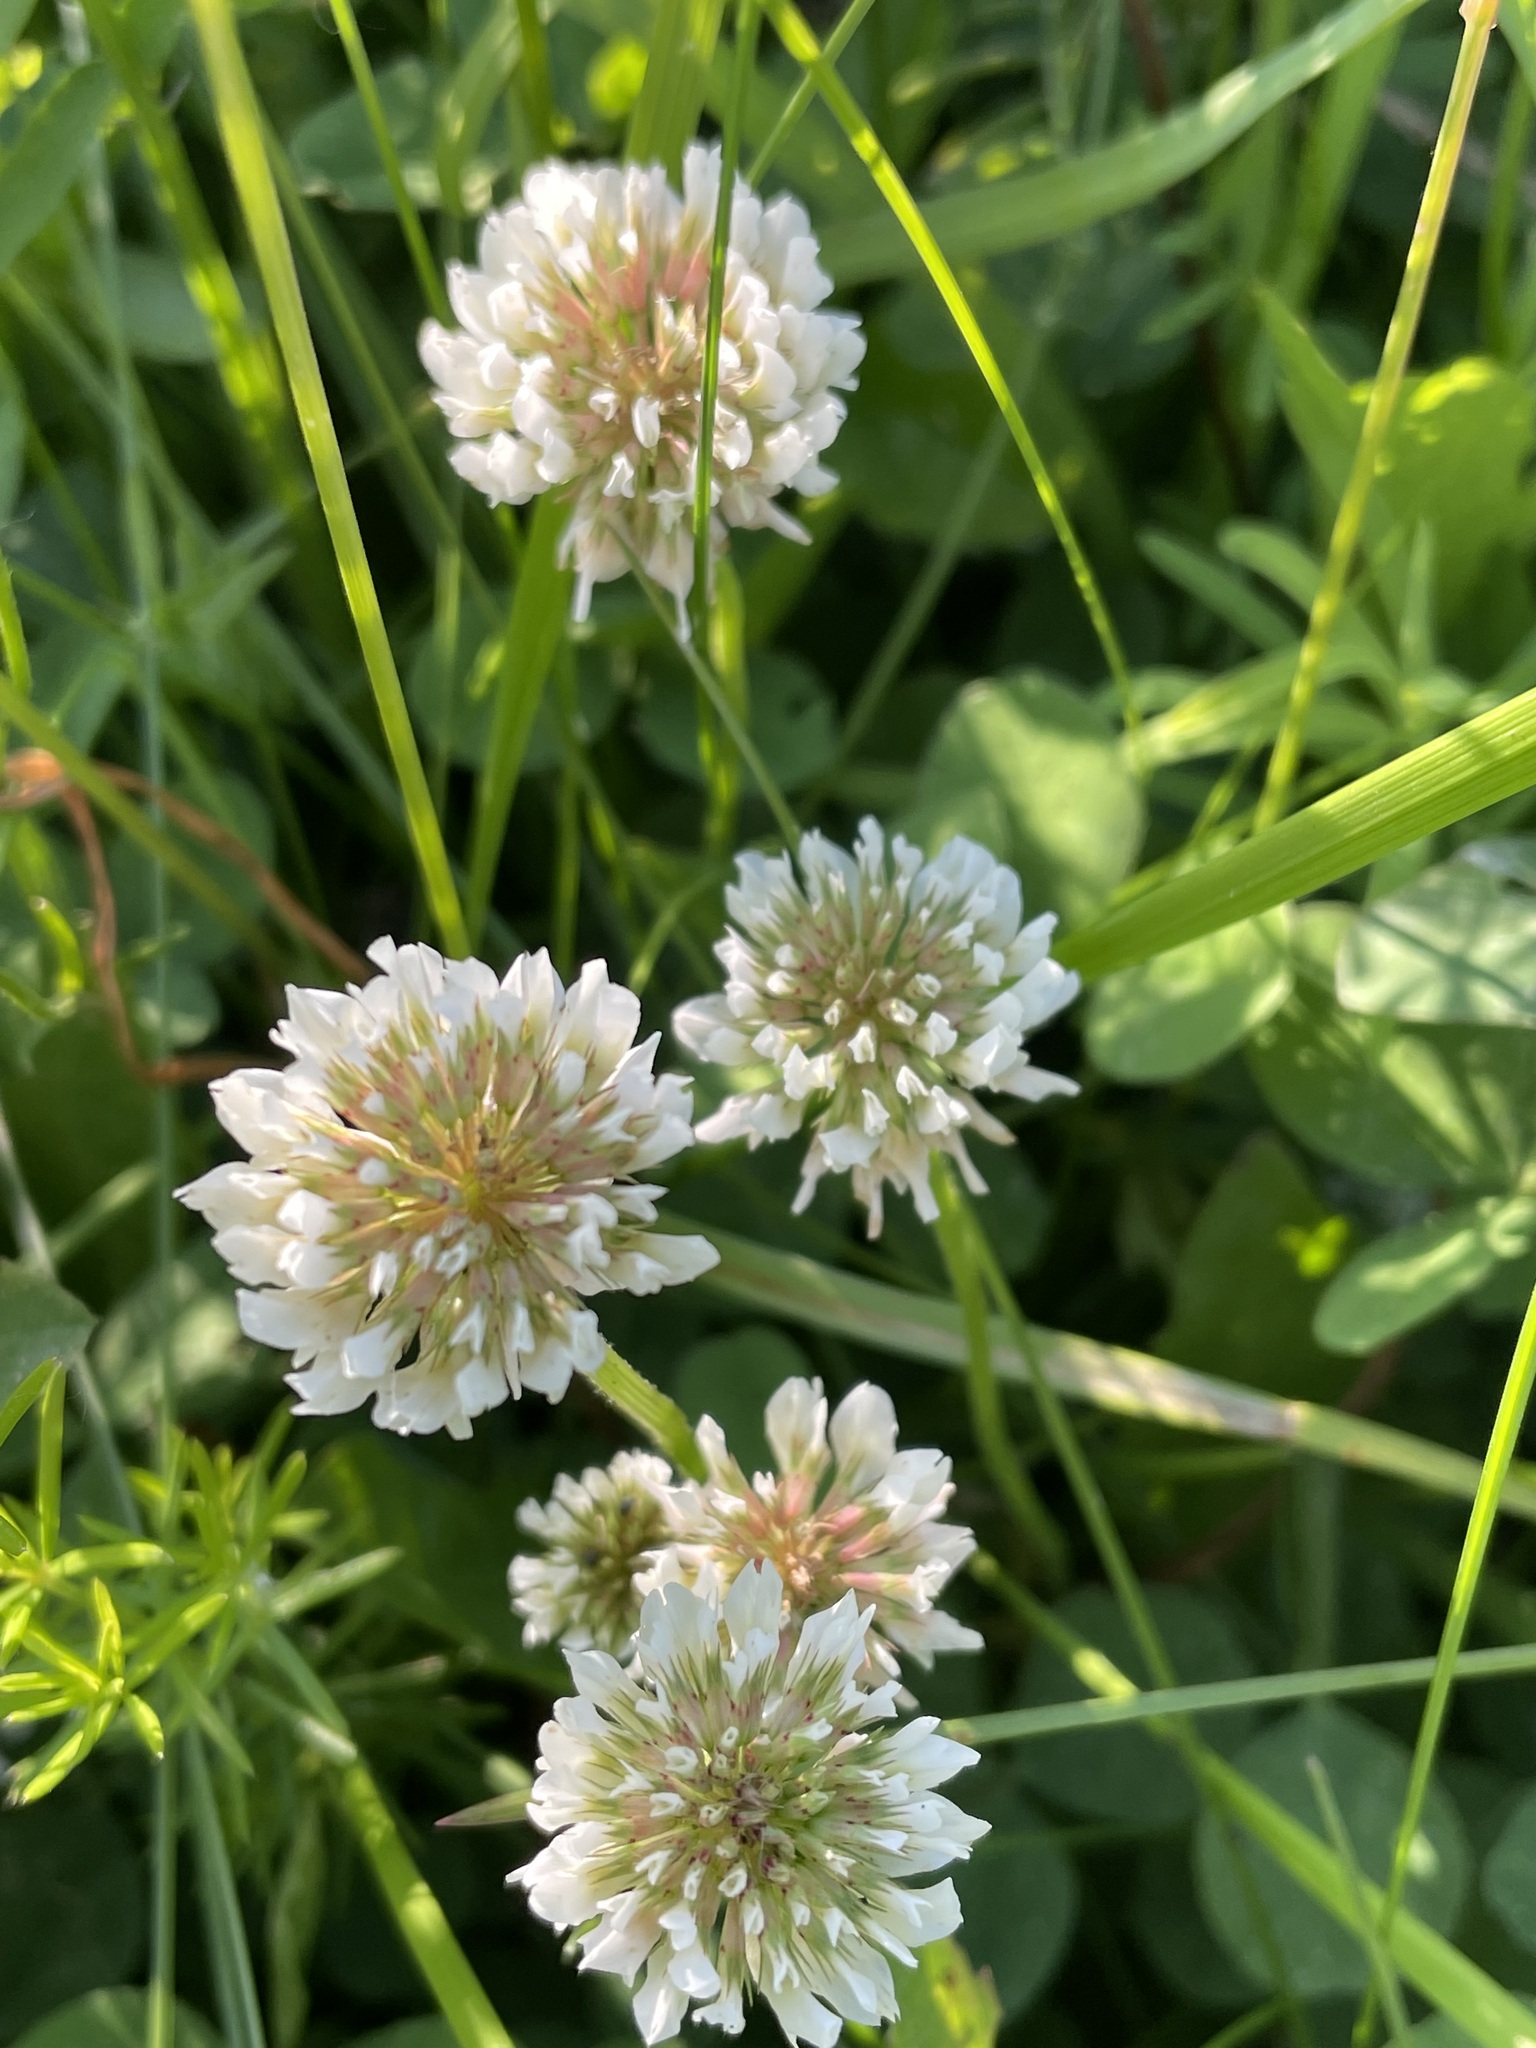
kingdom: Plantae
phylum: Tracheophyta
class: Magnoliopsida
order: Fabales
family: Fabaceae
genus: Trifolium
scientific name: Trifolium repens
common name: White clover
